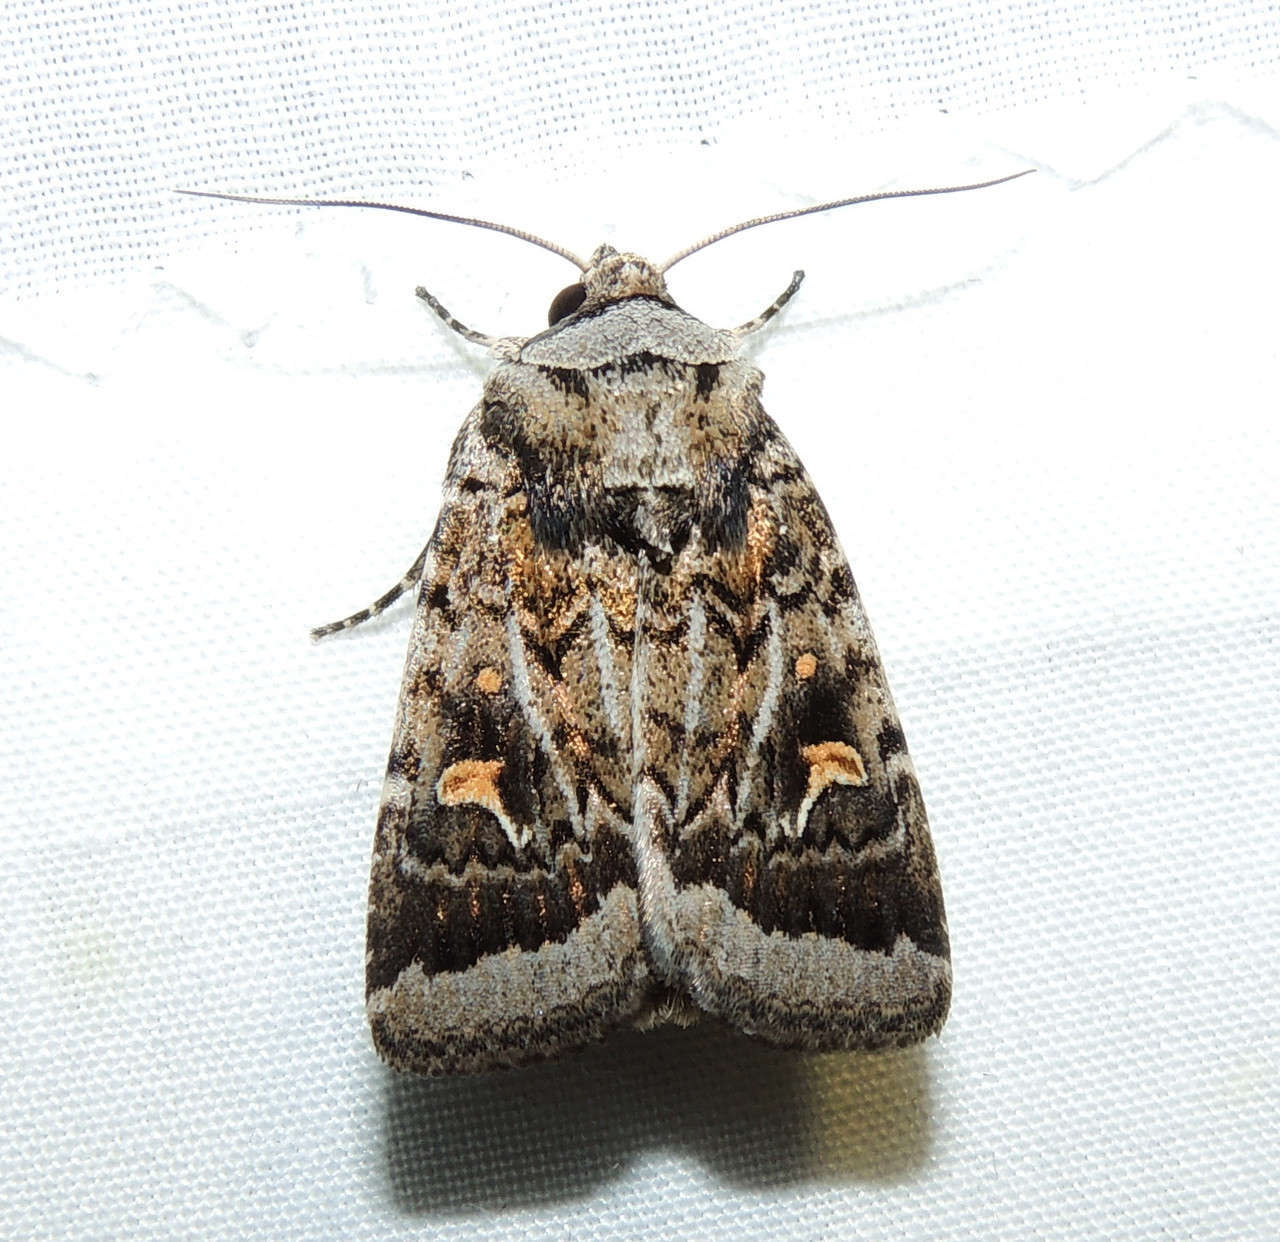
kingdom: Animalia
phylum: Arthropoda
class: Insecta
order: Lepidoptera
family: Noctuidae
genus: Proteuxoa
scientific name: Proteuxoa oxygona
